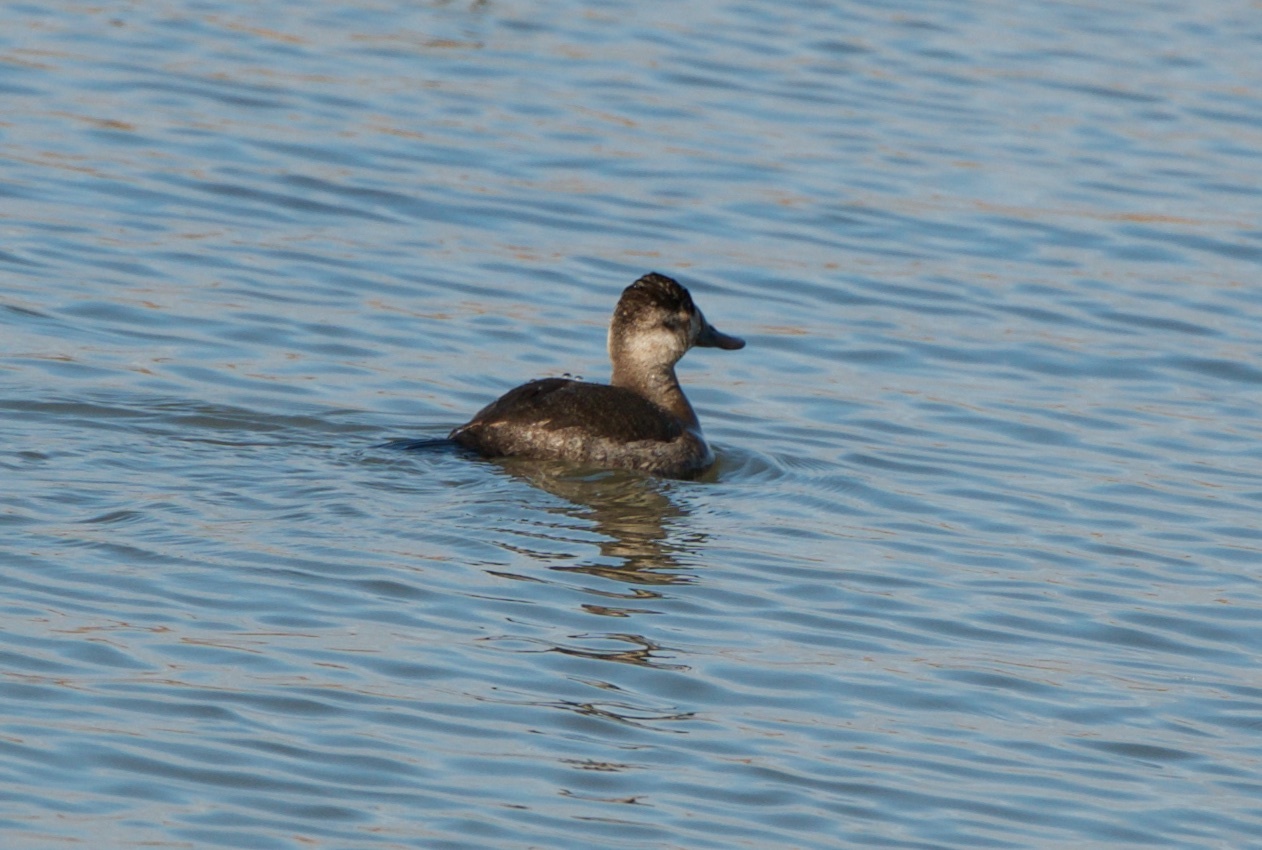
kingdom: Animalia
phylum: Chordata
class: Aves
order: Anseriformes
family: Anatidae
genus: Oxyura
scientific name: Oxyura jamaicensis
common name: Ruddy duck
